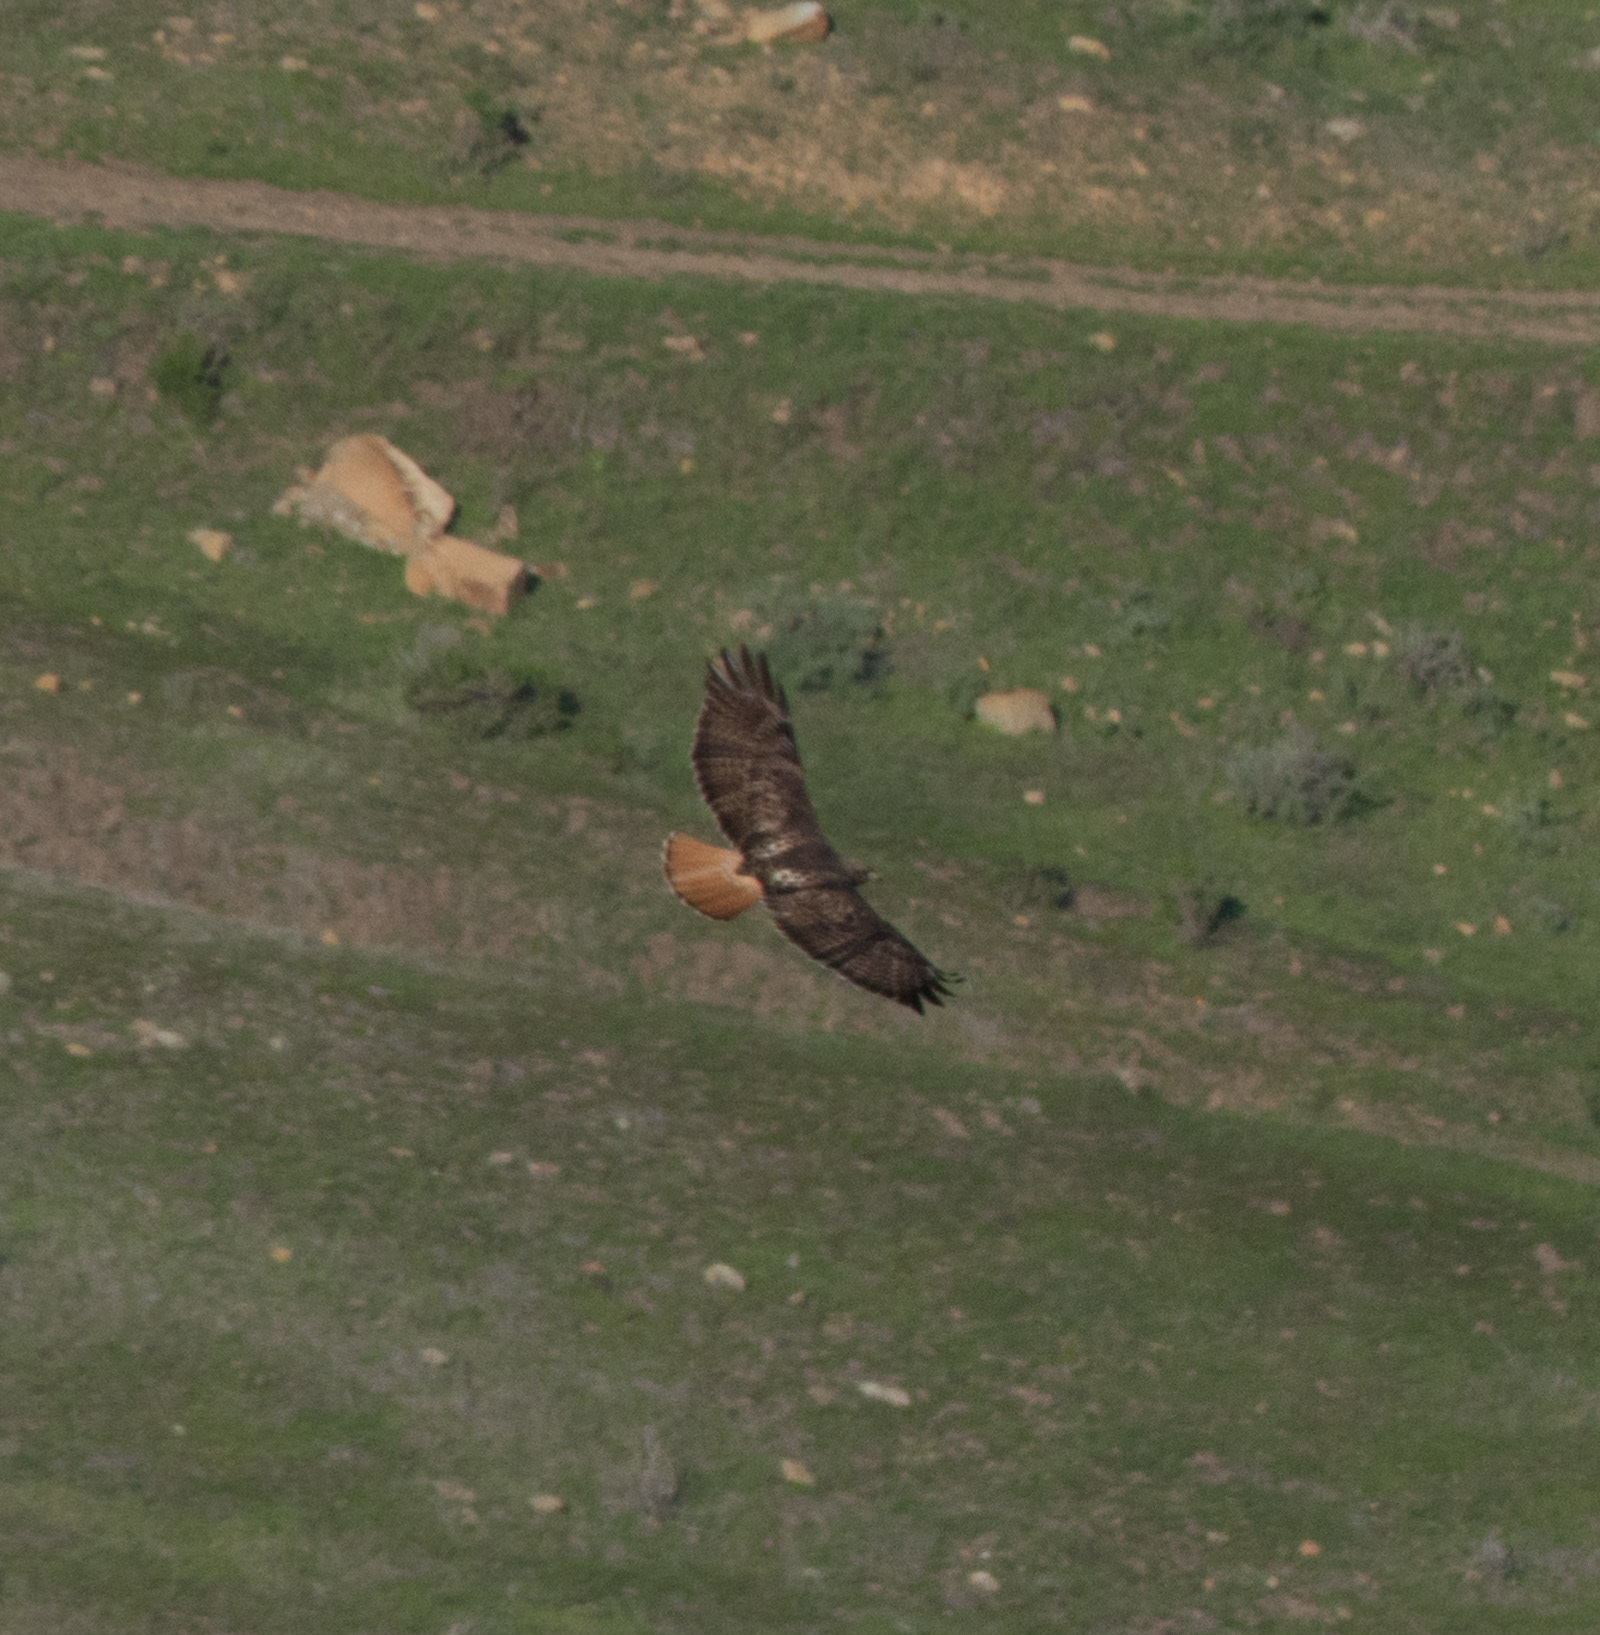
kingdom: Animalia
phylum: Chordata
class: Aves
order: Accipitriformes
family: Accipitridae
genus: Buteo
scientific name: Buteo jamaicensis
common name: Red-tailed hawk
